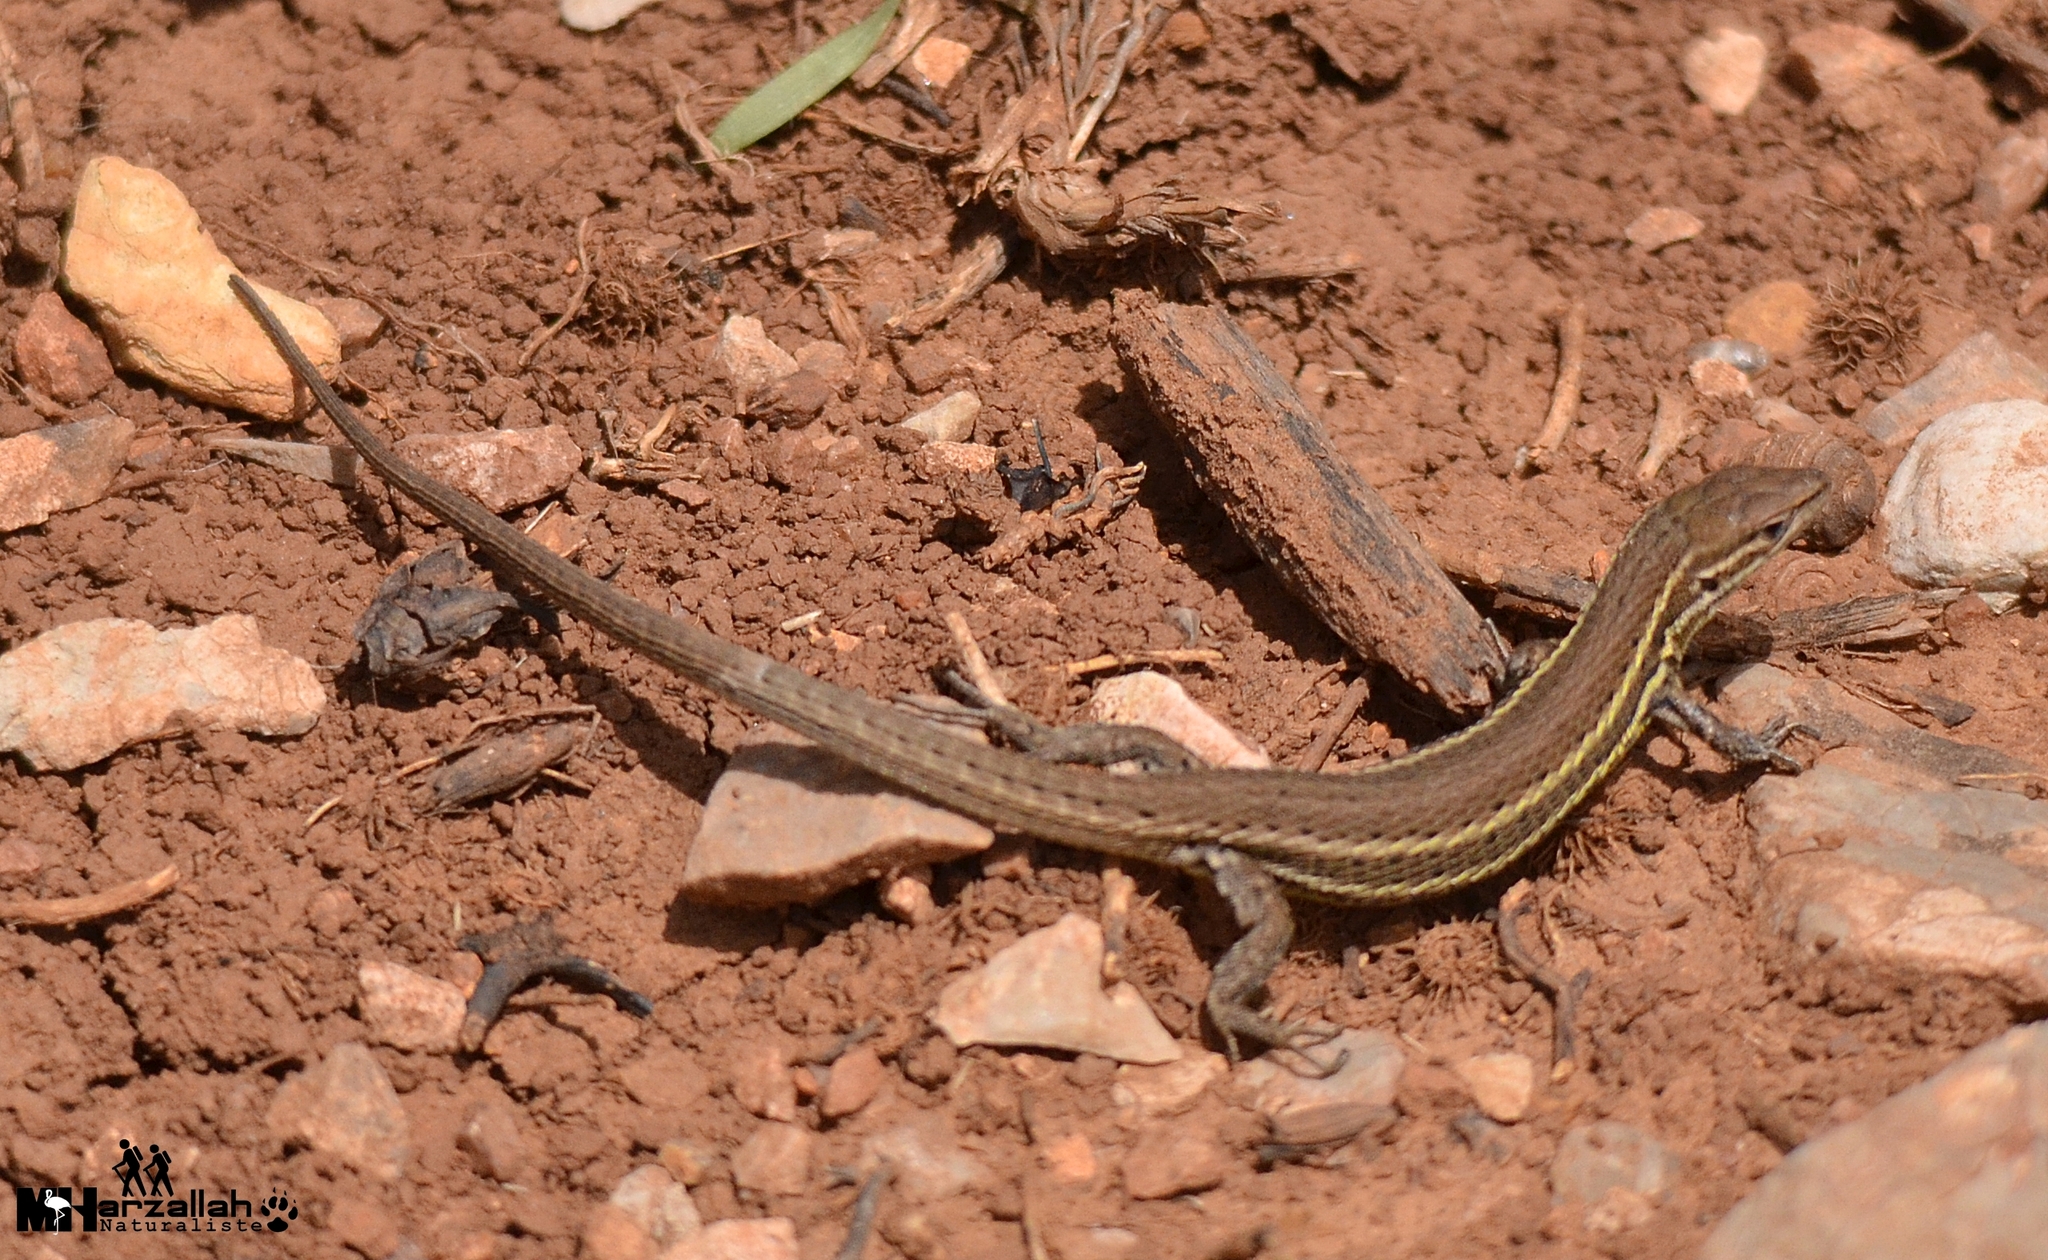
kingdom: Animalia
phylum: Chordata
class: Squamata
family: Lacertidae
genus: Psammodromus
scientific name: Psammodromus algirus
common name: Algerian psammodromus
